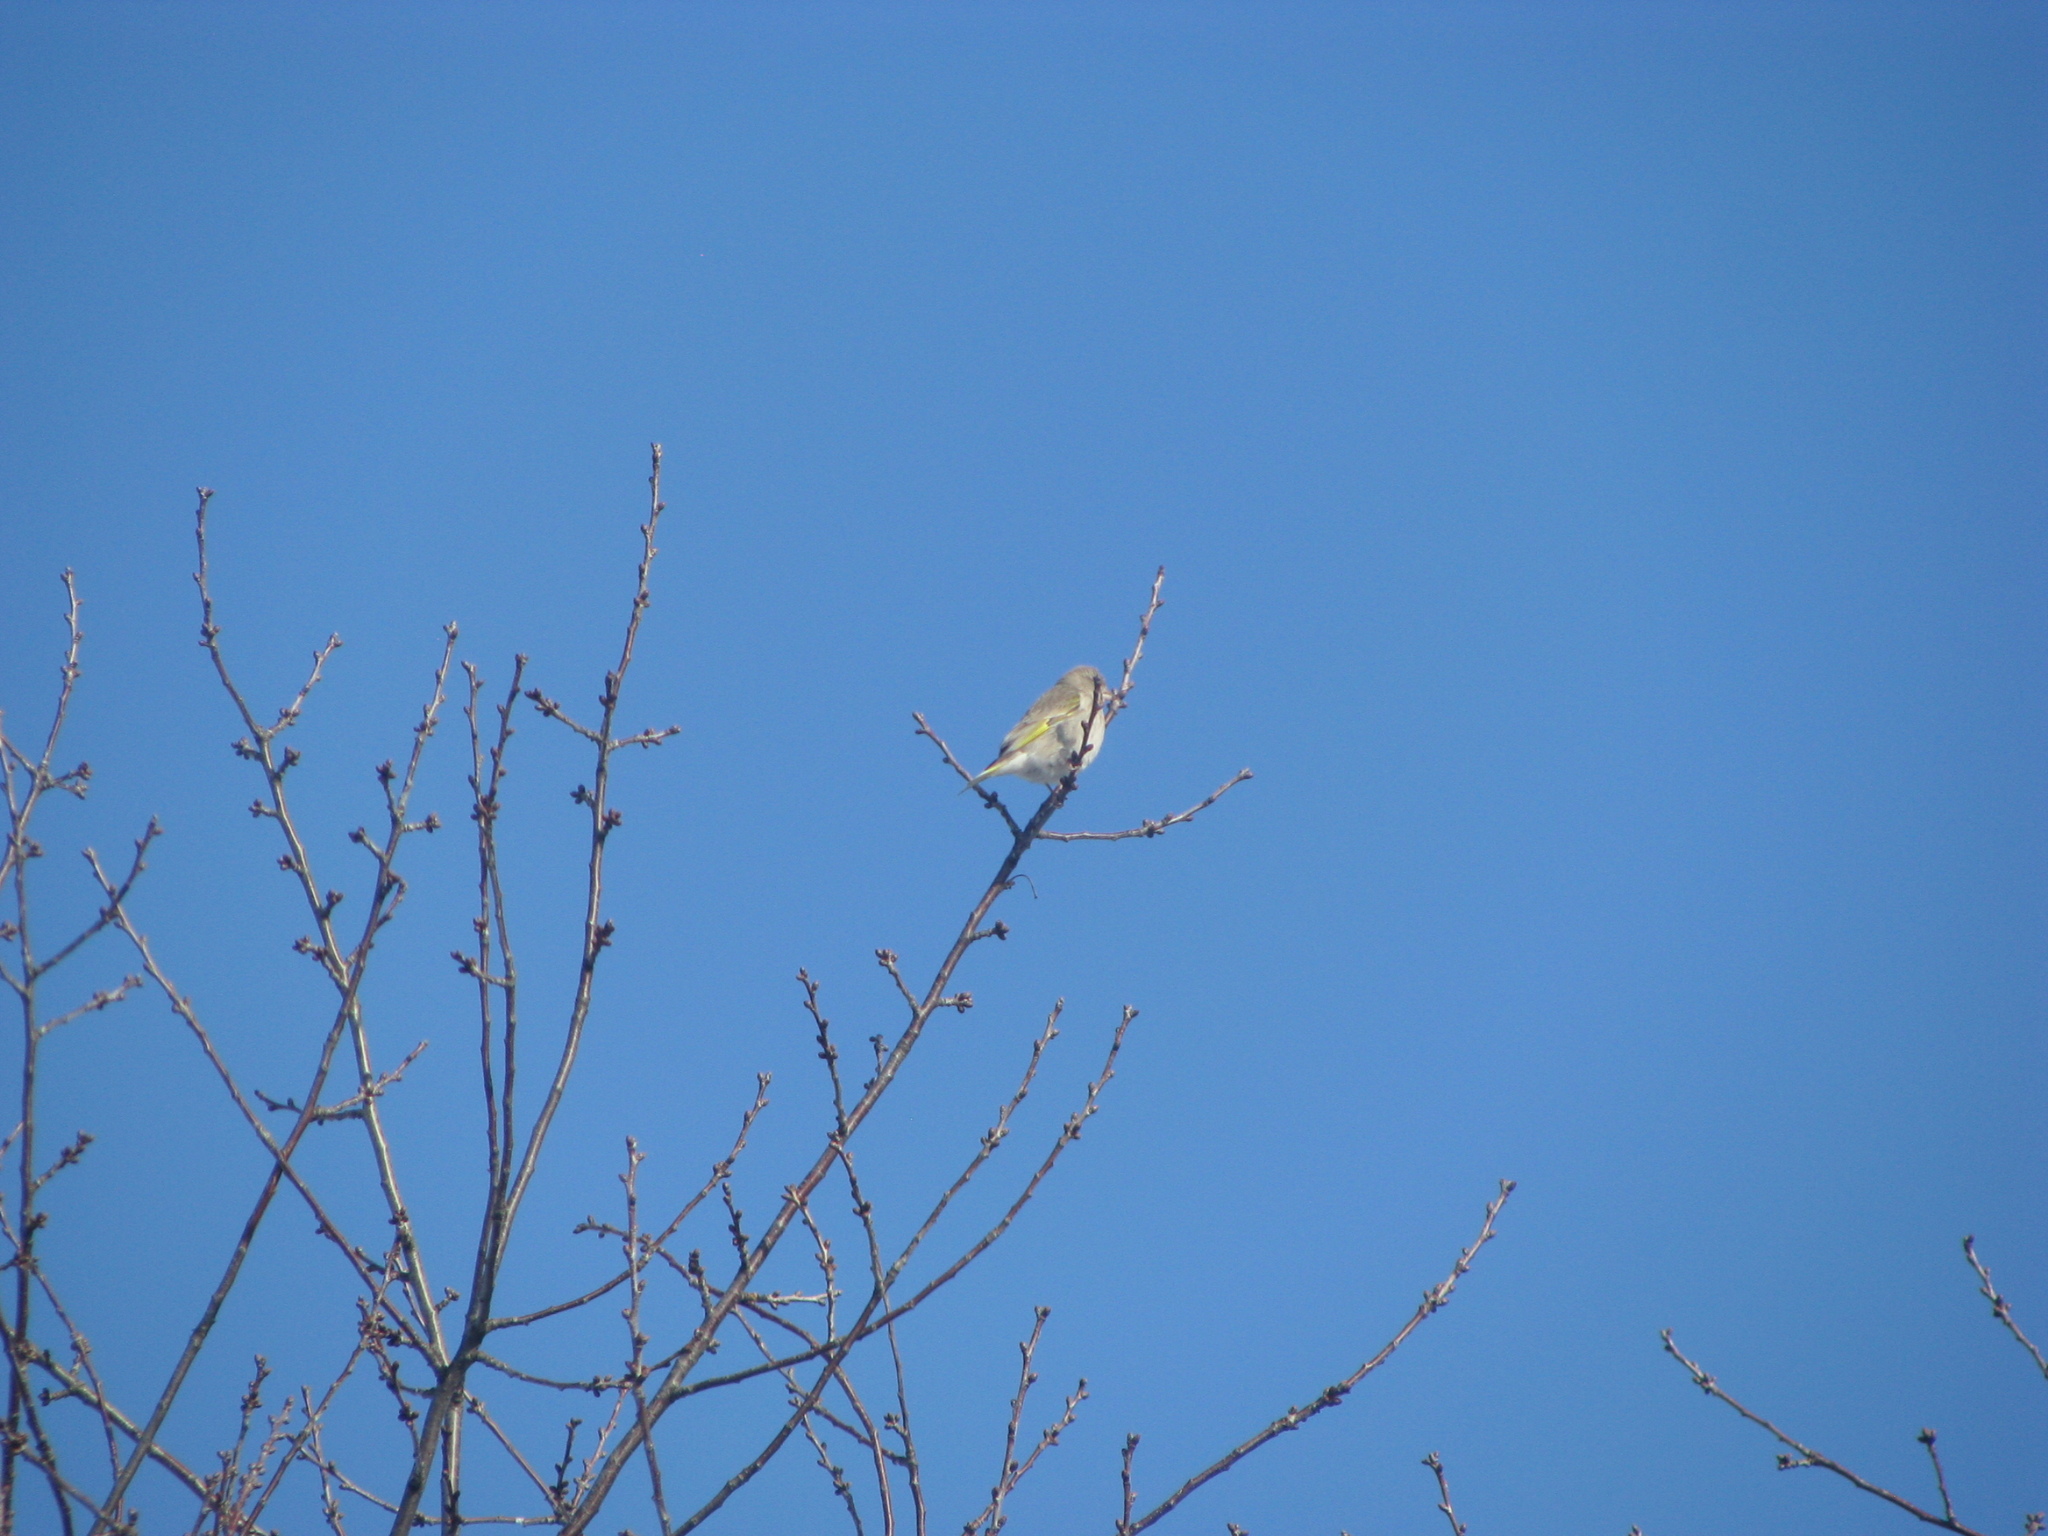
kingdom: Plantae
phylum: Tracheophyta
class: Liliopsida
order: Poales
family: Poaceae
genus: Chloris
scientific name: Chloris chloris
